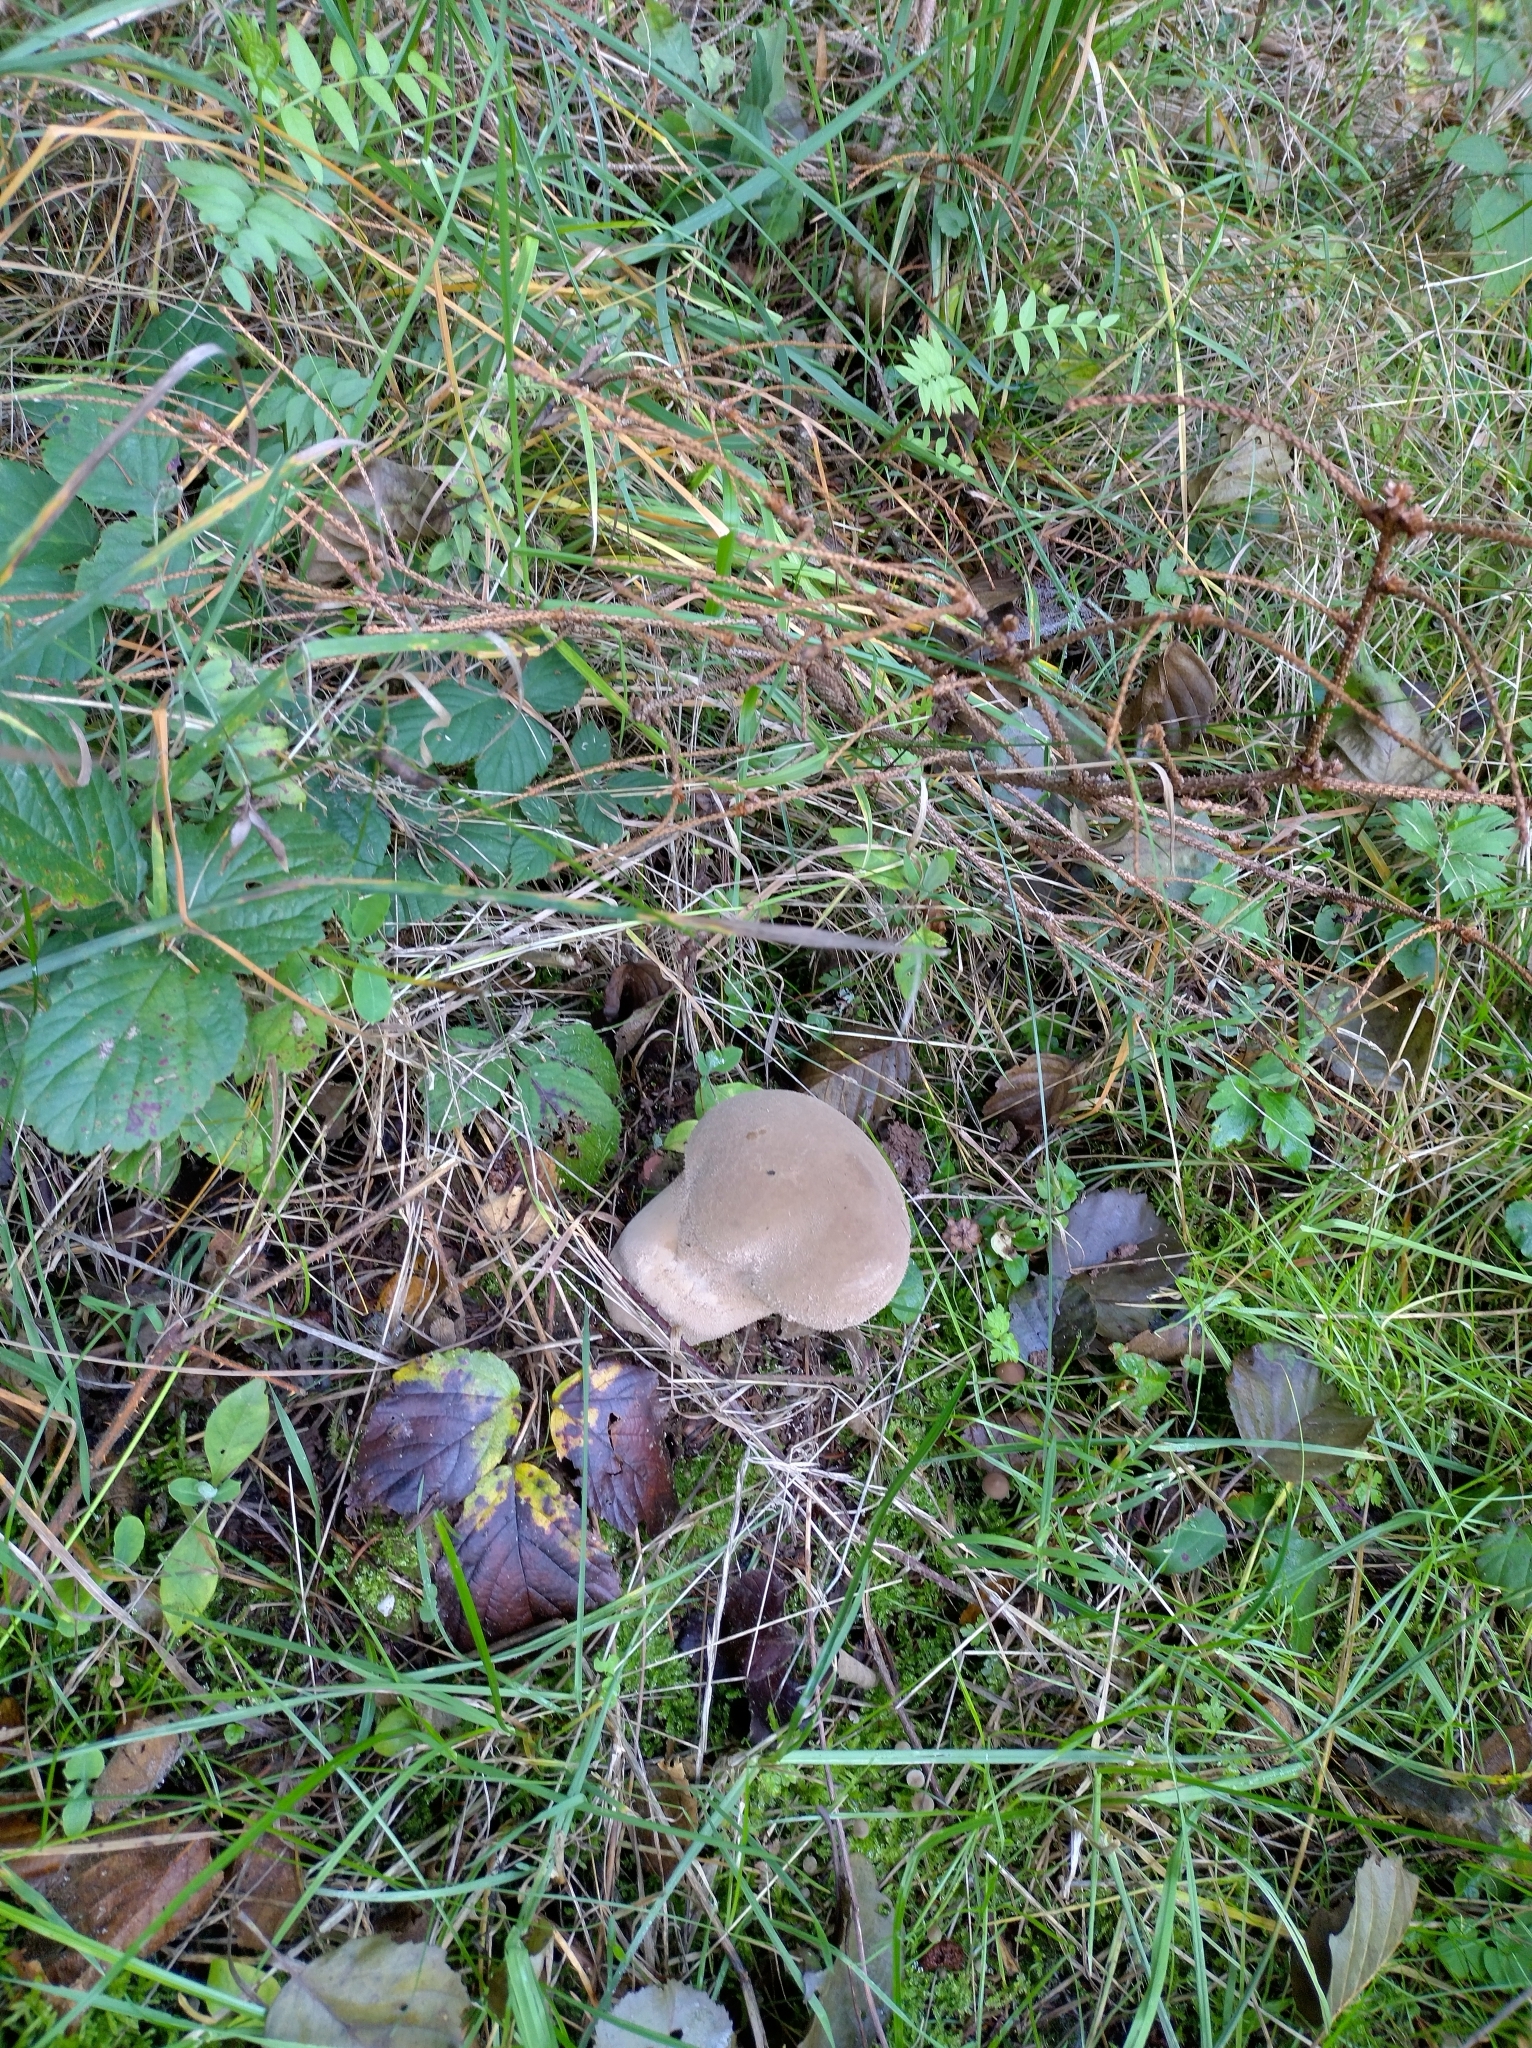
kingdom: Fungi
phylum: Basidiomycota
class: Agaricomycetes
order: Agaricales
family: Lycoperdaceae
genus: Lycoperdon
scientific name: Lycoperdon excipuliforme
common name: Pestle puffball
